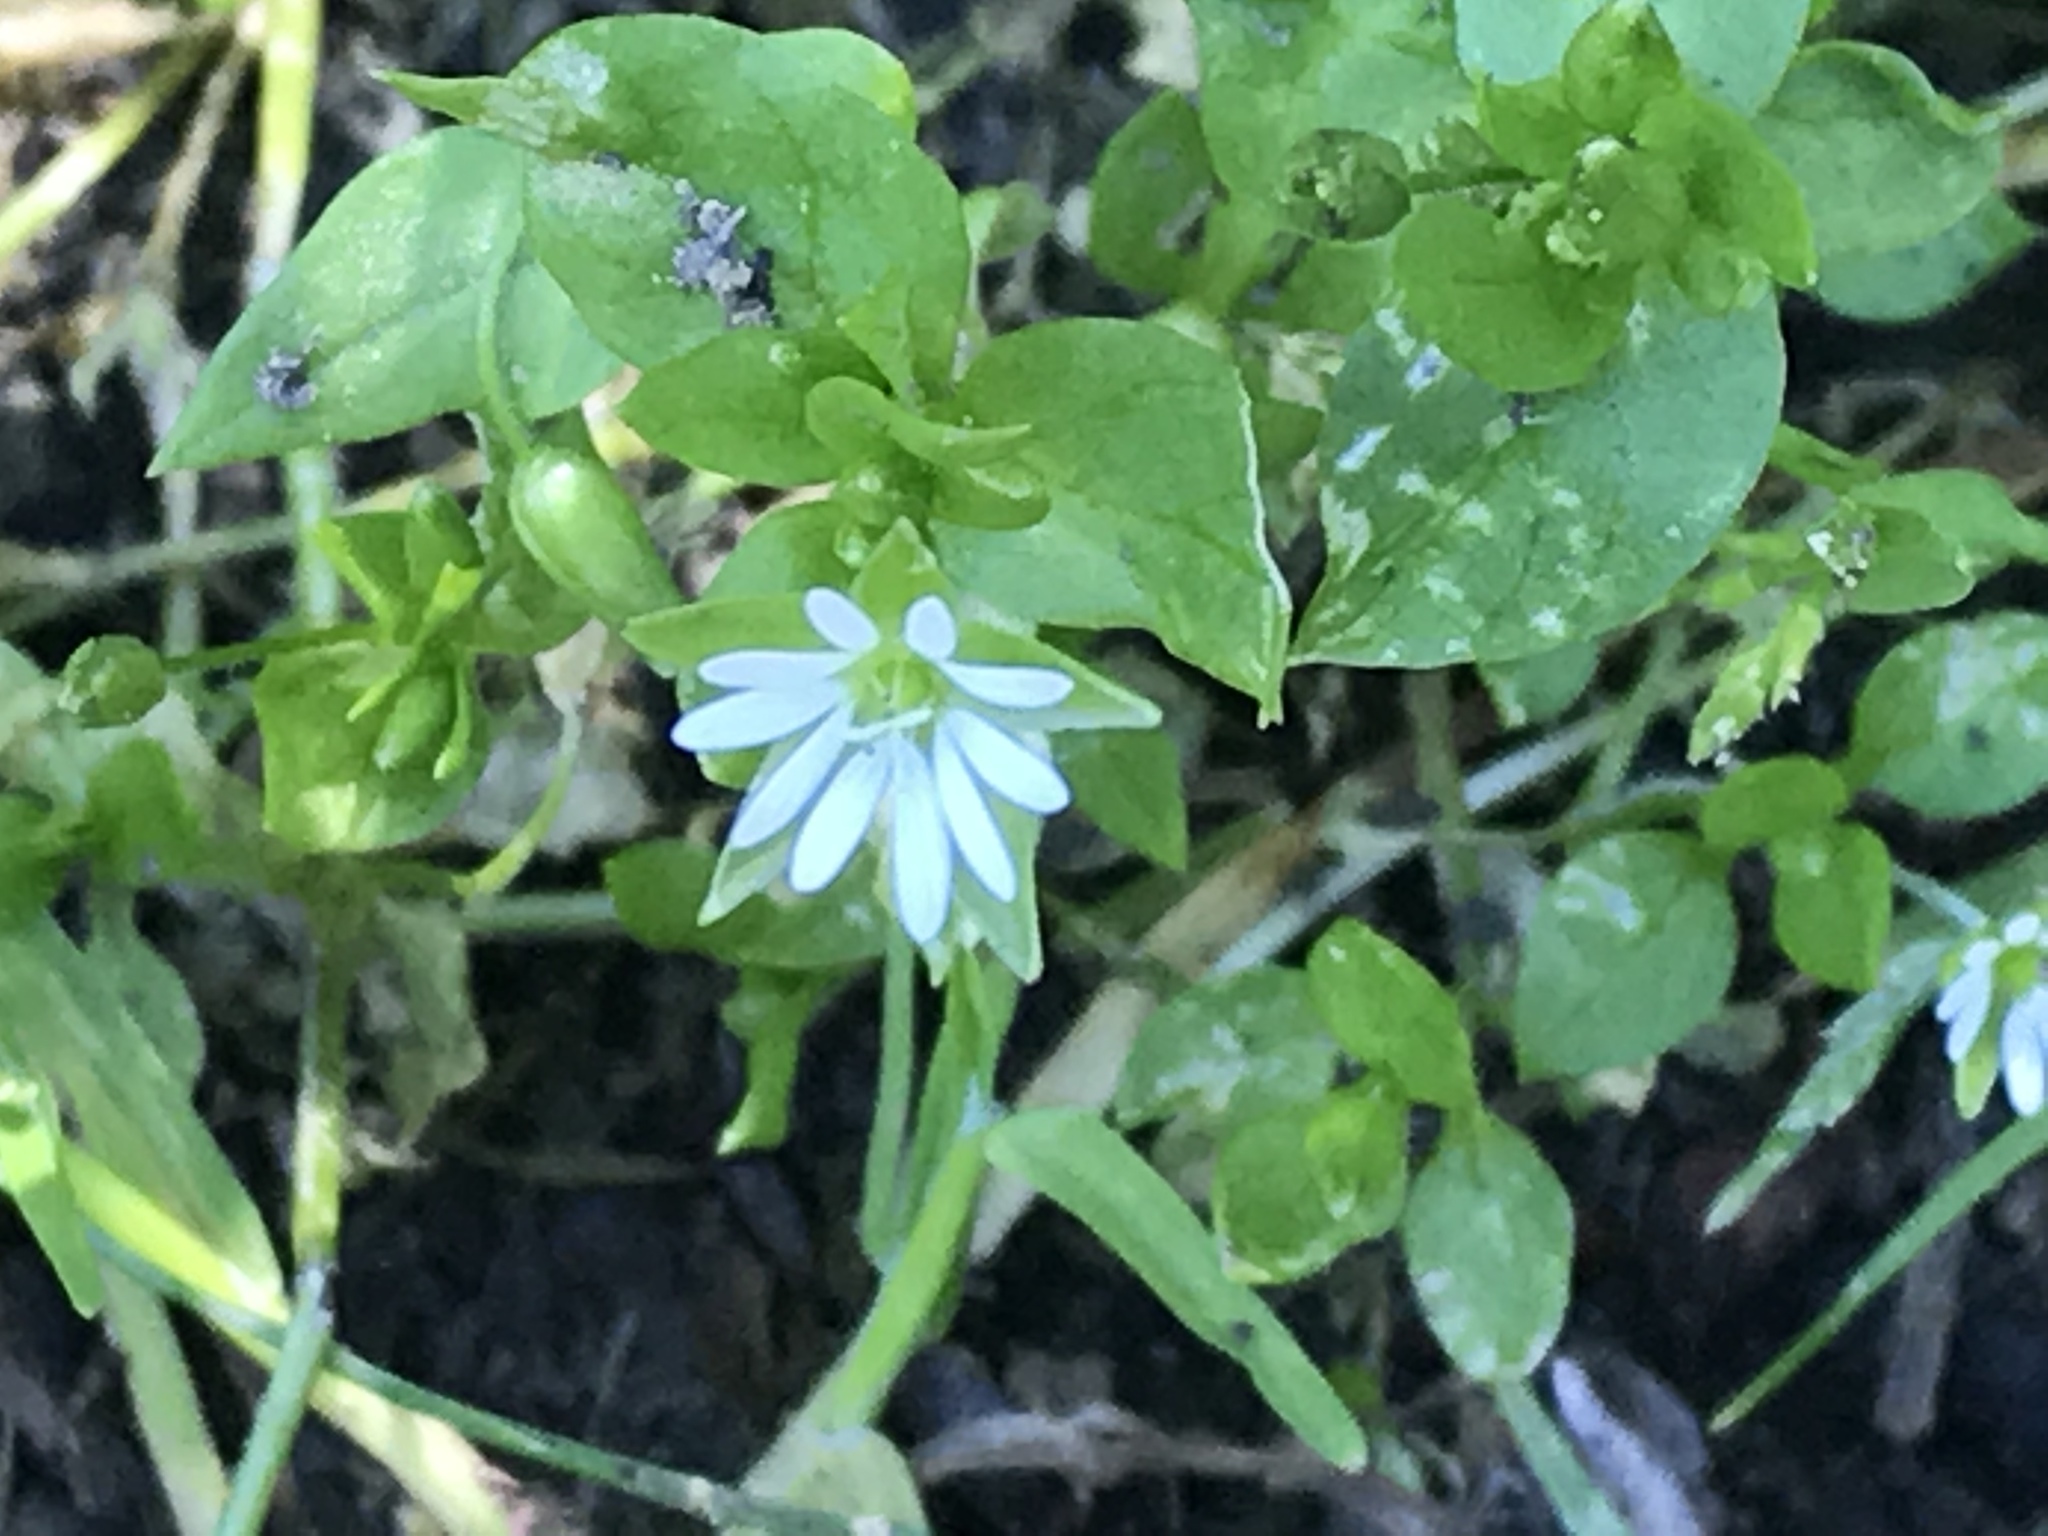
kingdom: Plantae
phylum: Tracheophyta
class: Magnoliopsida
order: Caryophyllales
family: Caryophyllaceae
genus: Stellaria
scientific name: Stellaria media
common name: Common chickweed
